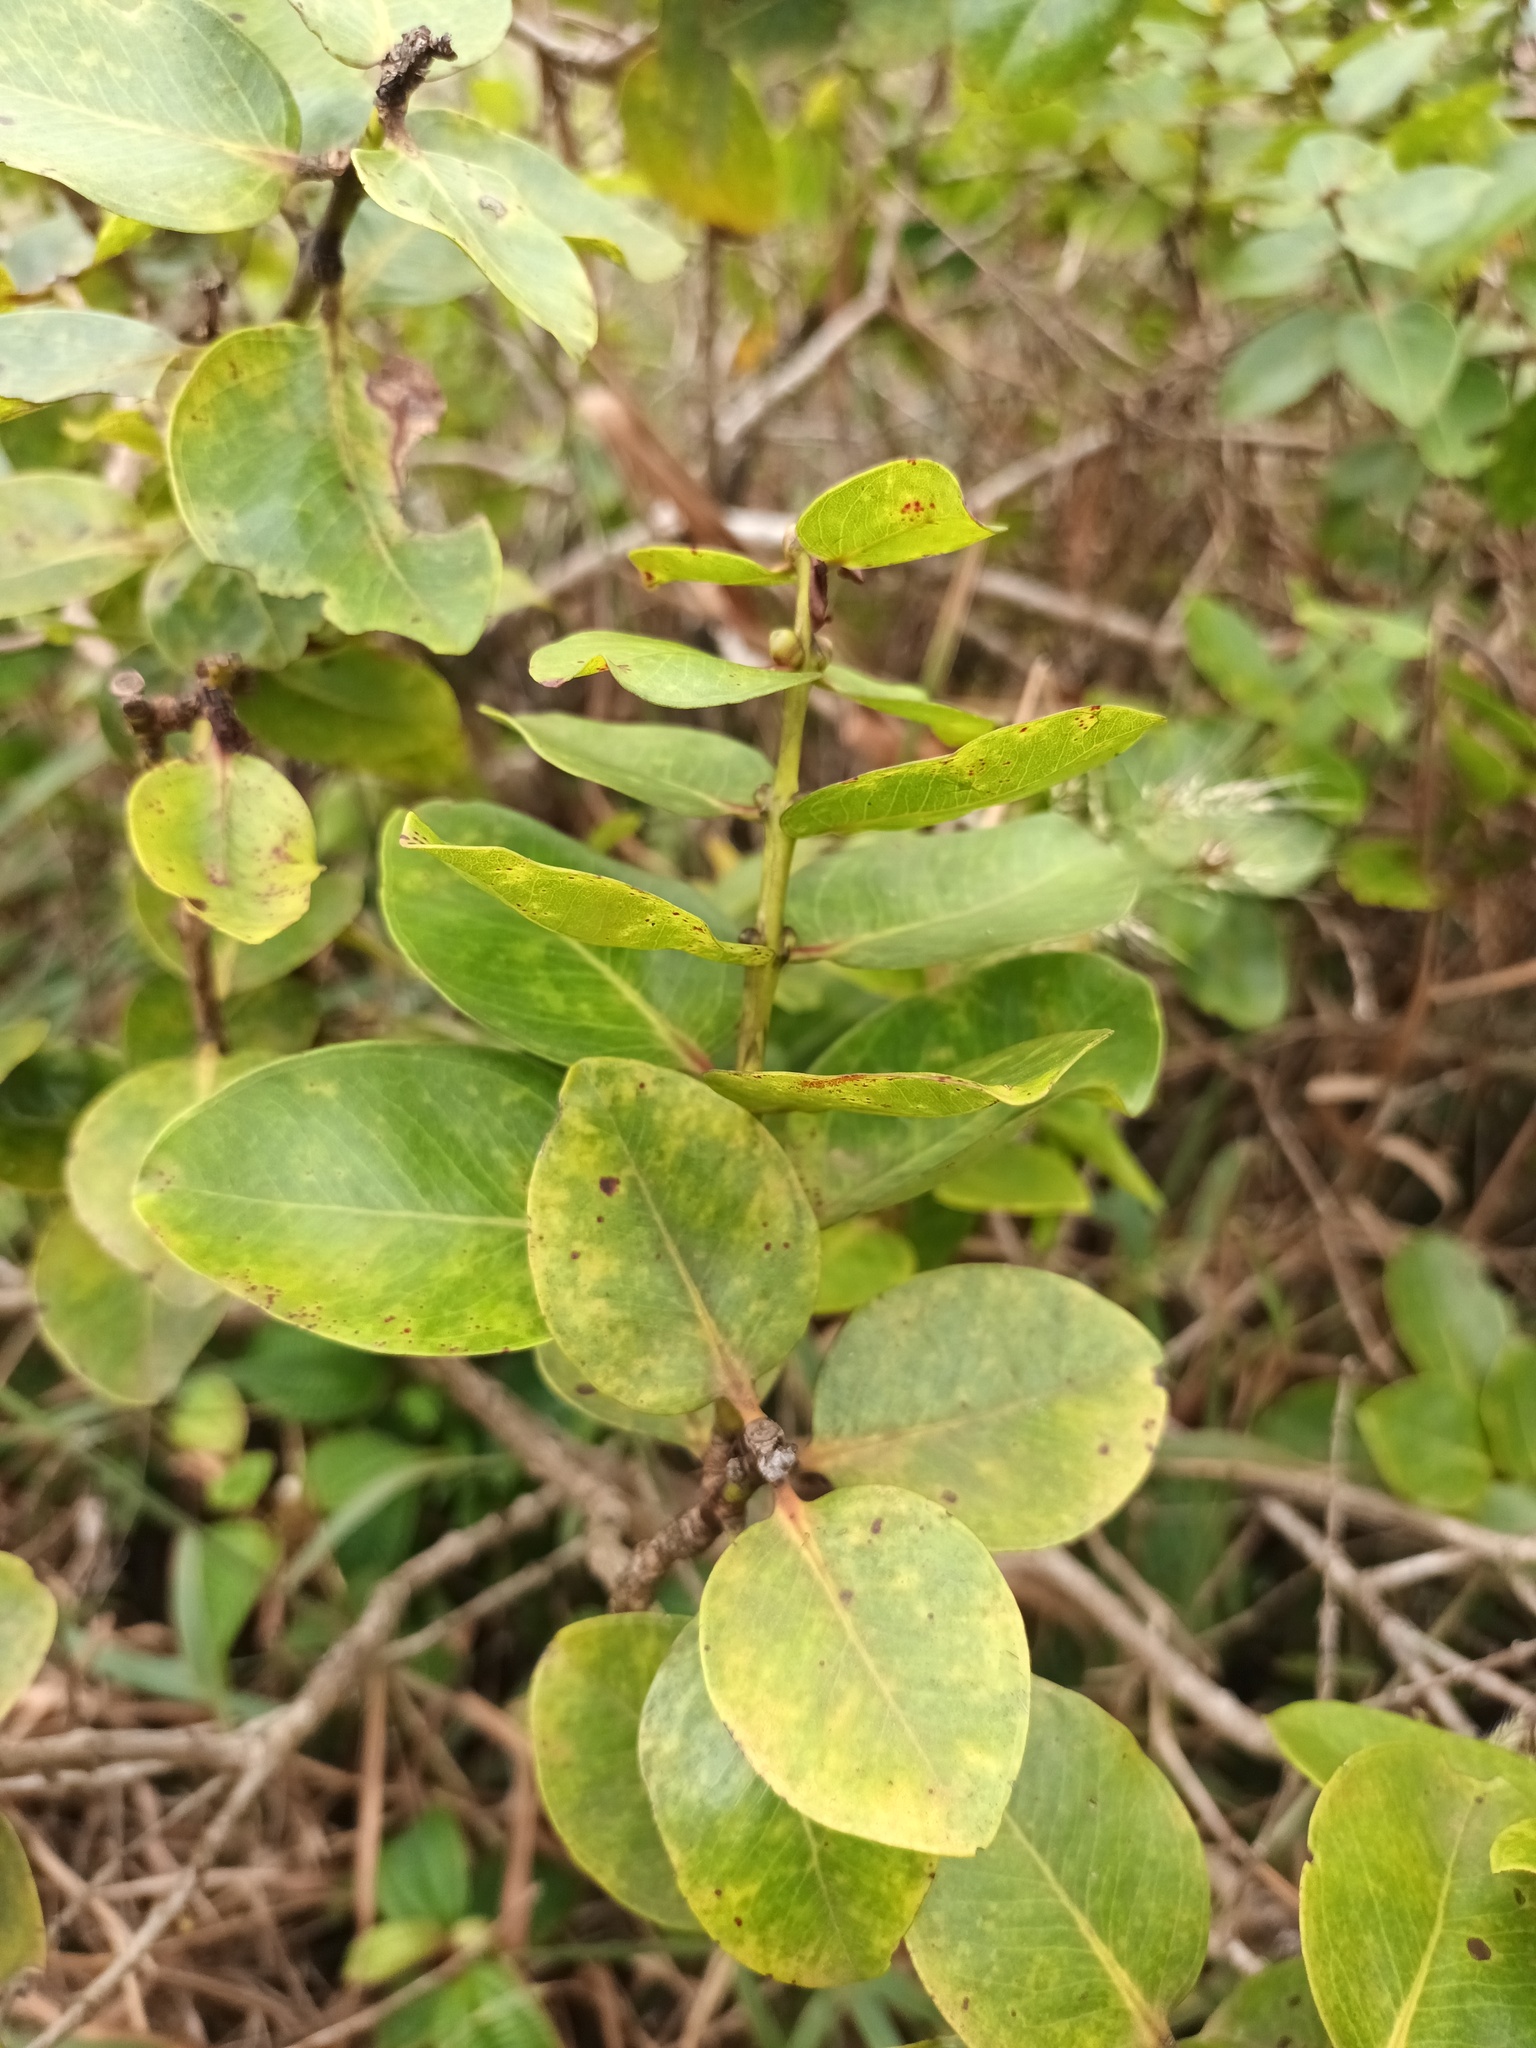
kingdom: Plantae
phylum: Tracheophyta
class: Magnoliopsida
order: Myrtales
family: Myrtaceae
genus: Metrosideros
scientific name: Metrosideros polymorpha
